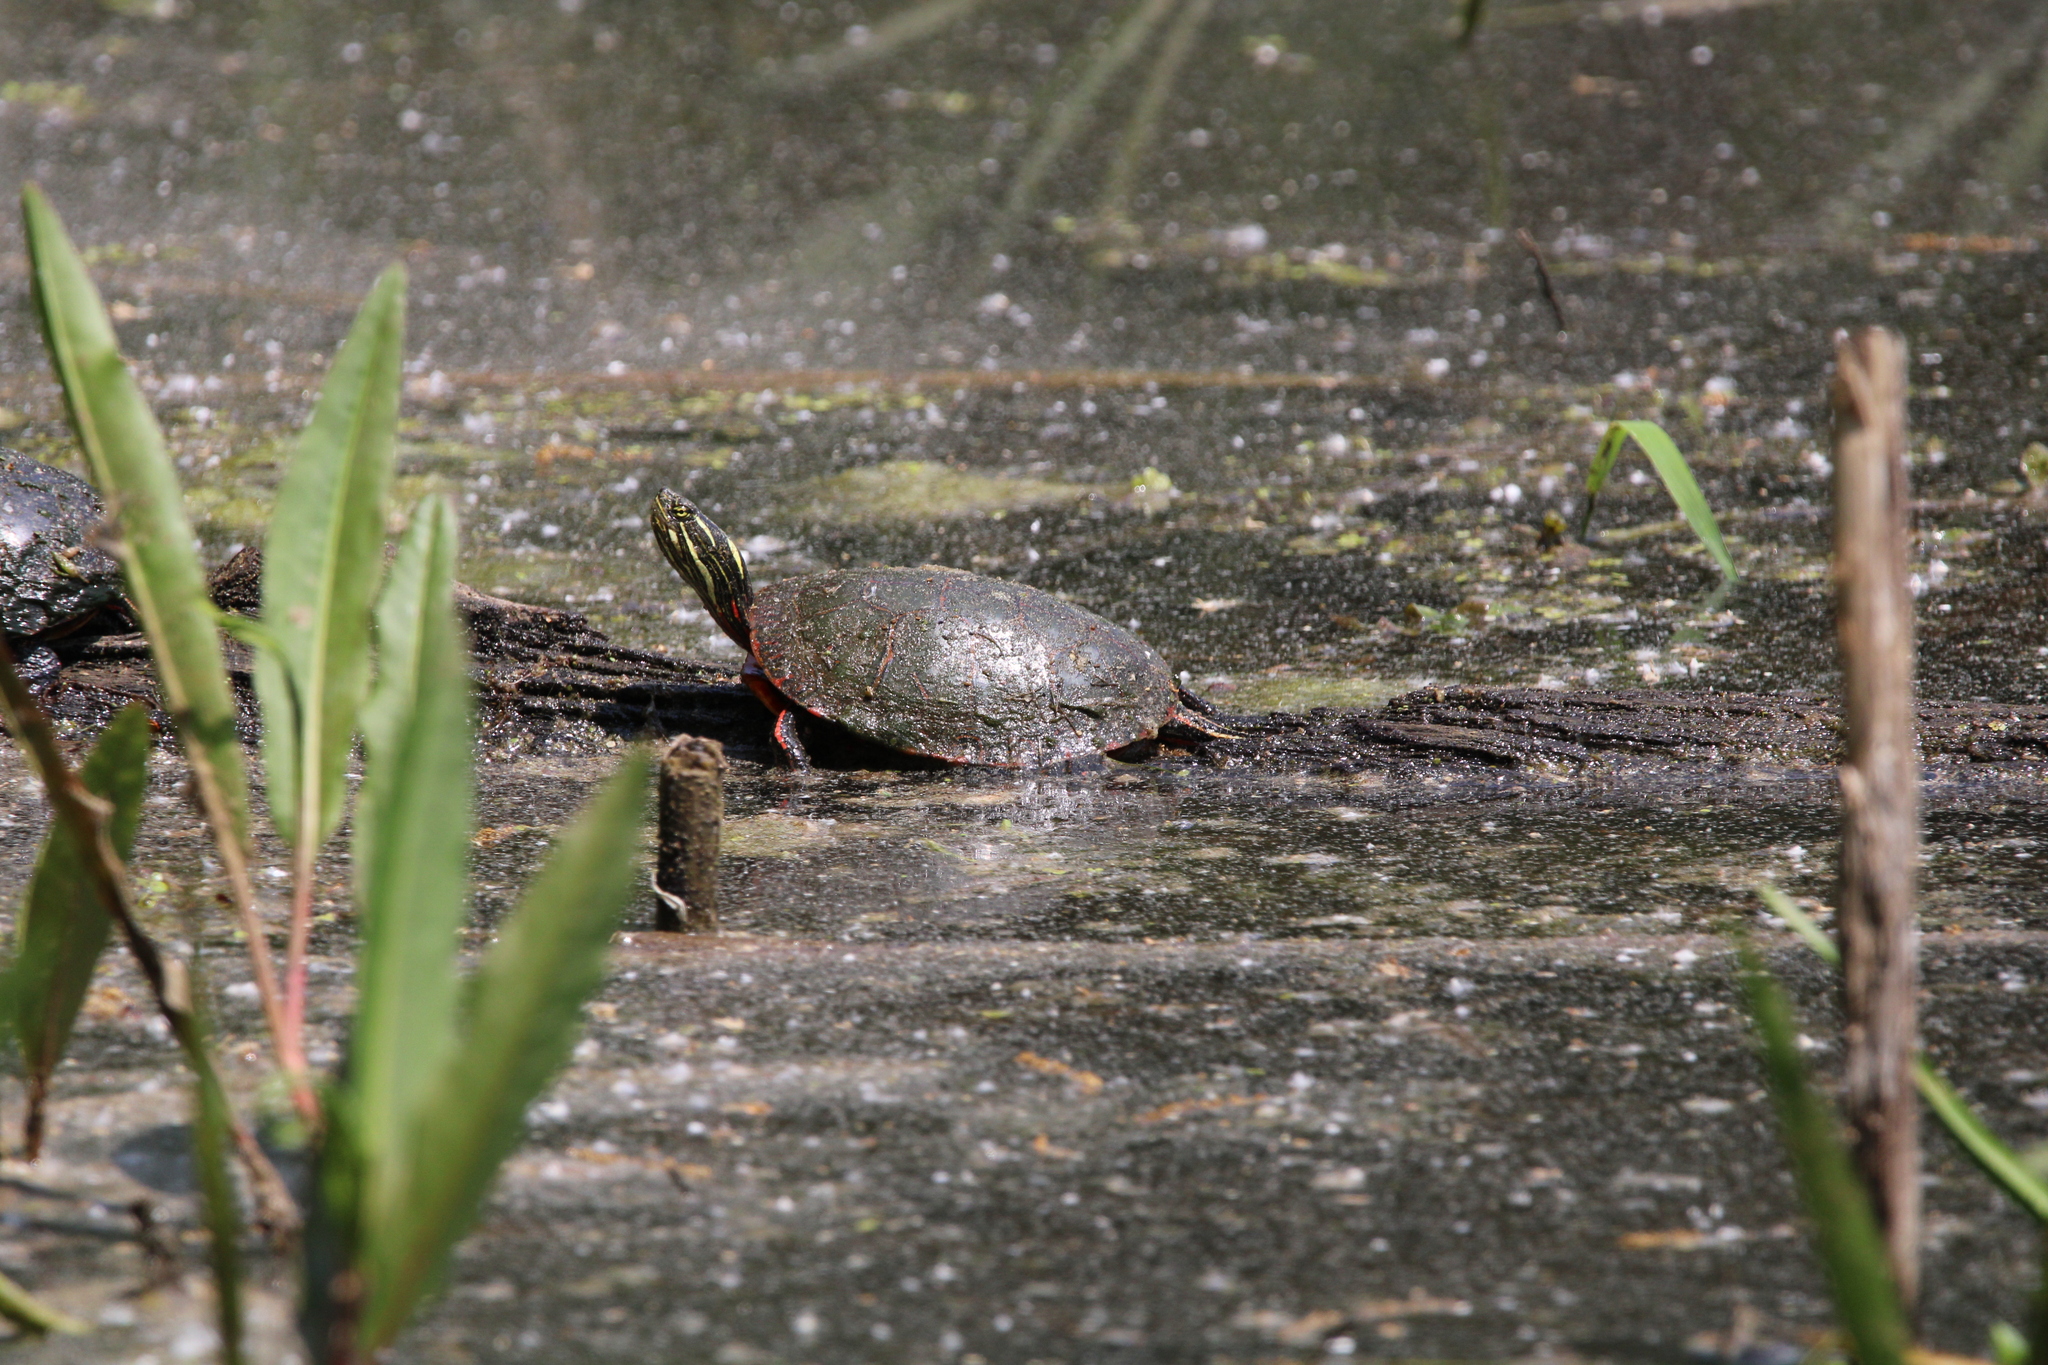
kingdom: Animalia
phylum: Chordata
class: Testudines
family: Emydidae
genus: Chrysemys
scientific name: Chrysemys picta
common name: Painted turtle
